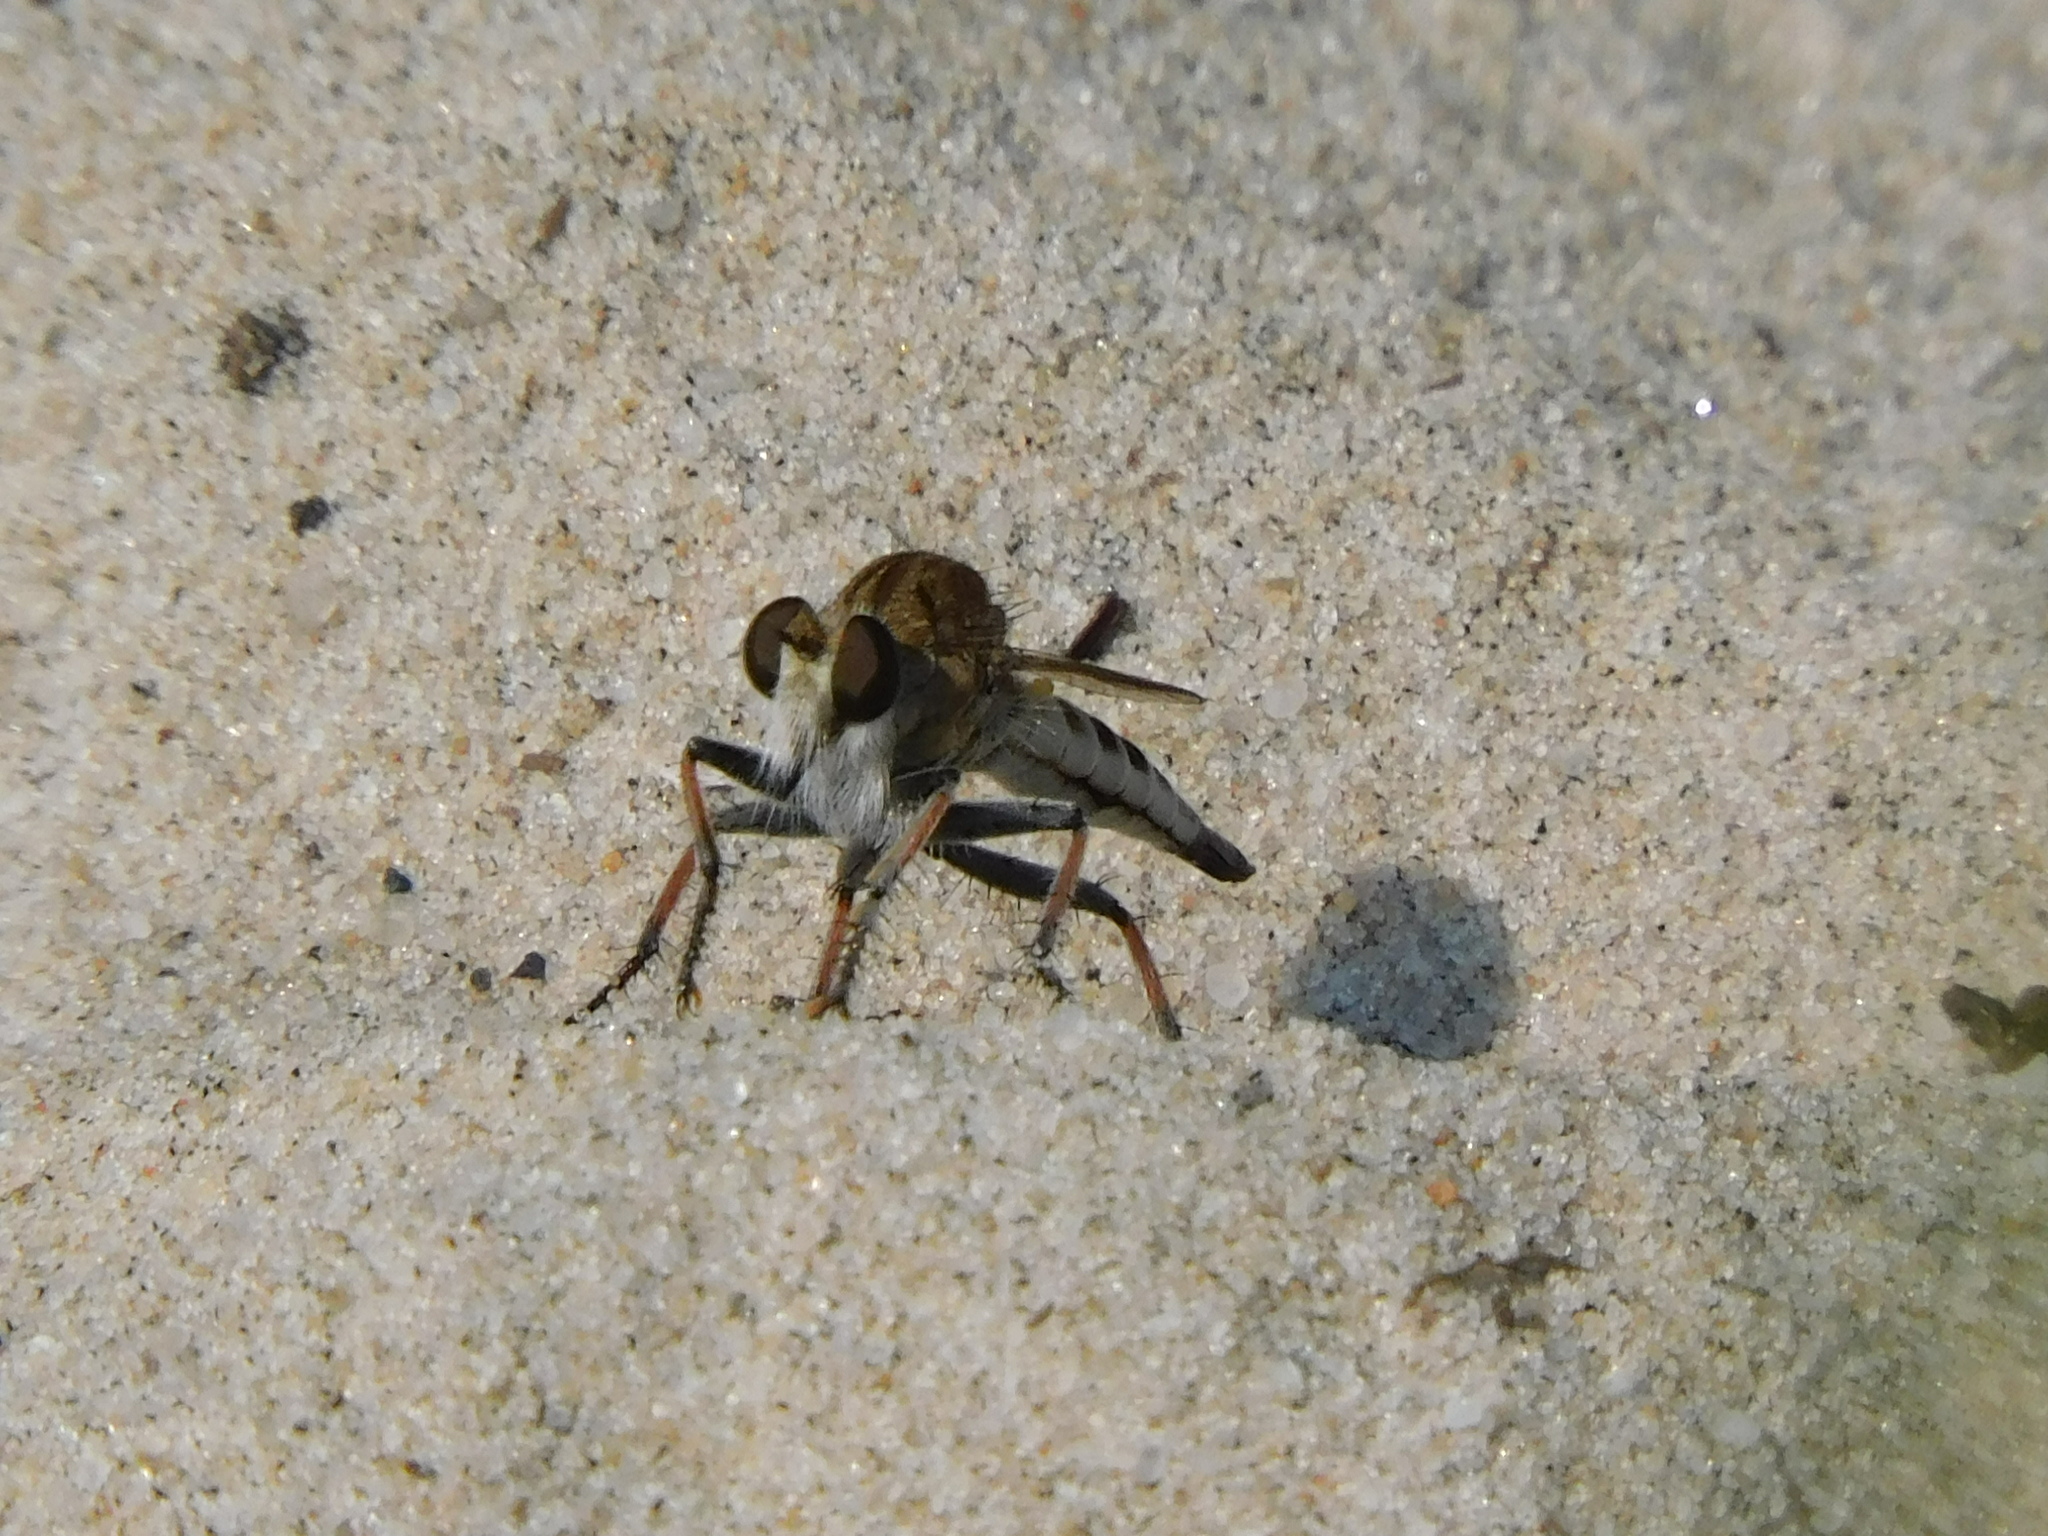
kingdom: Animalia
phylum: Arthropoda
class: Insecta
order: Diptera
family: Asilidae
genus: Efferia
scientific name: Efferia albibarbis
